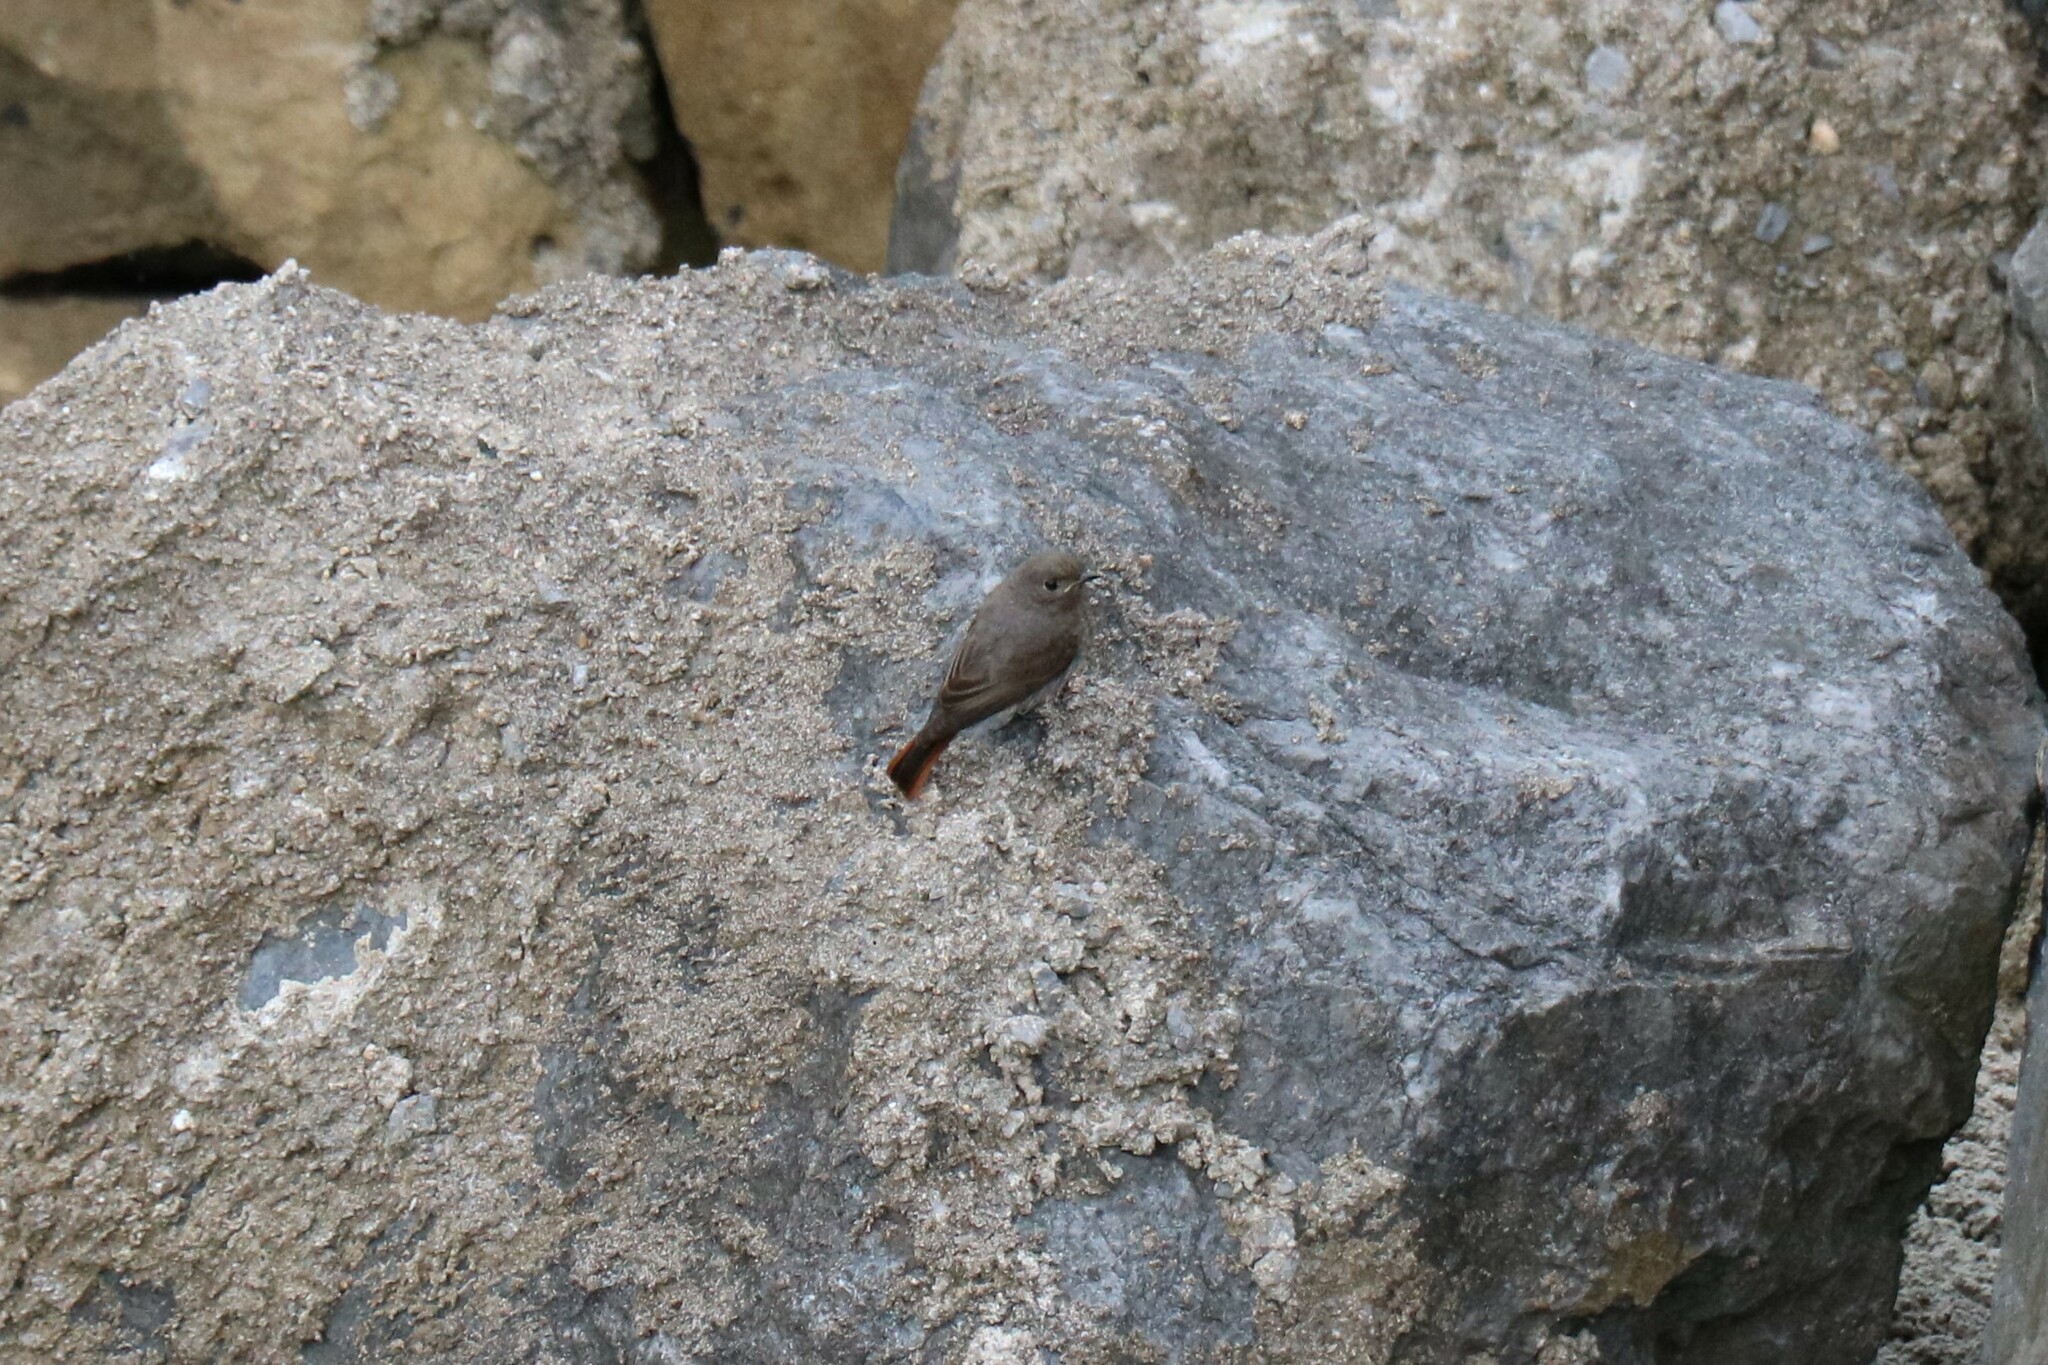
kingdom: Animalia
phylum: Chordata
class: Aves
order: Passeriformes
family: Muscicapidae
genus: Phoenicurus
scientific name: Phoenicurus ochruros
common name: Black redstart
